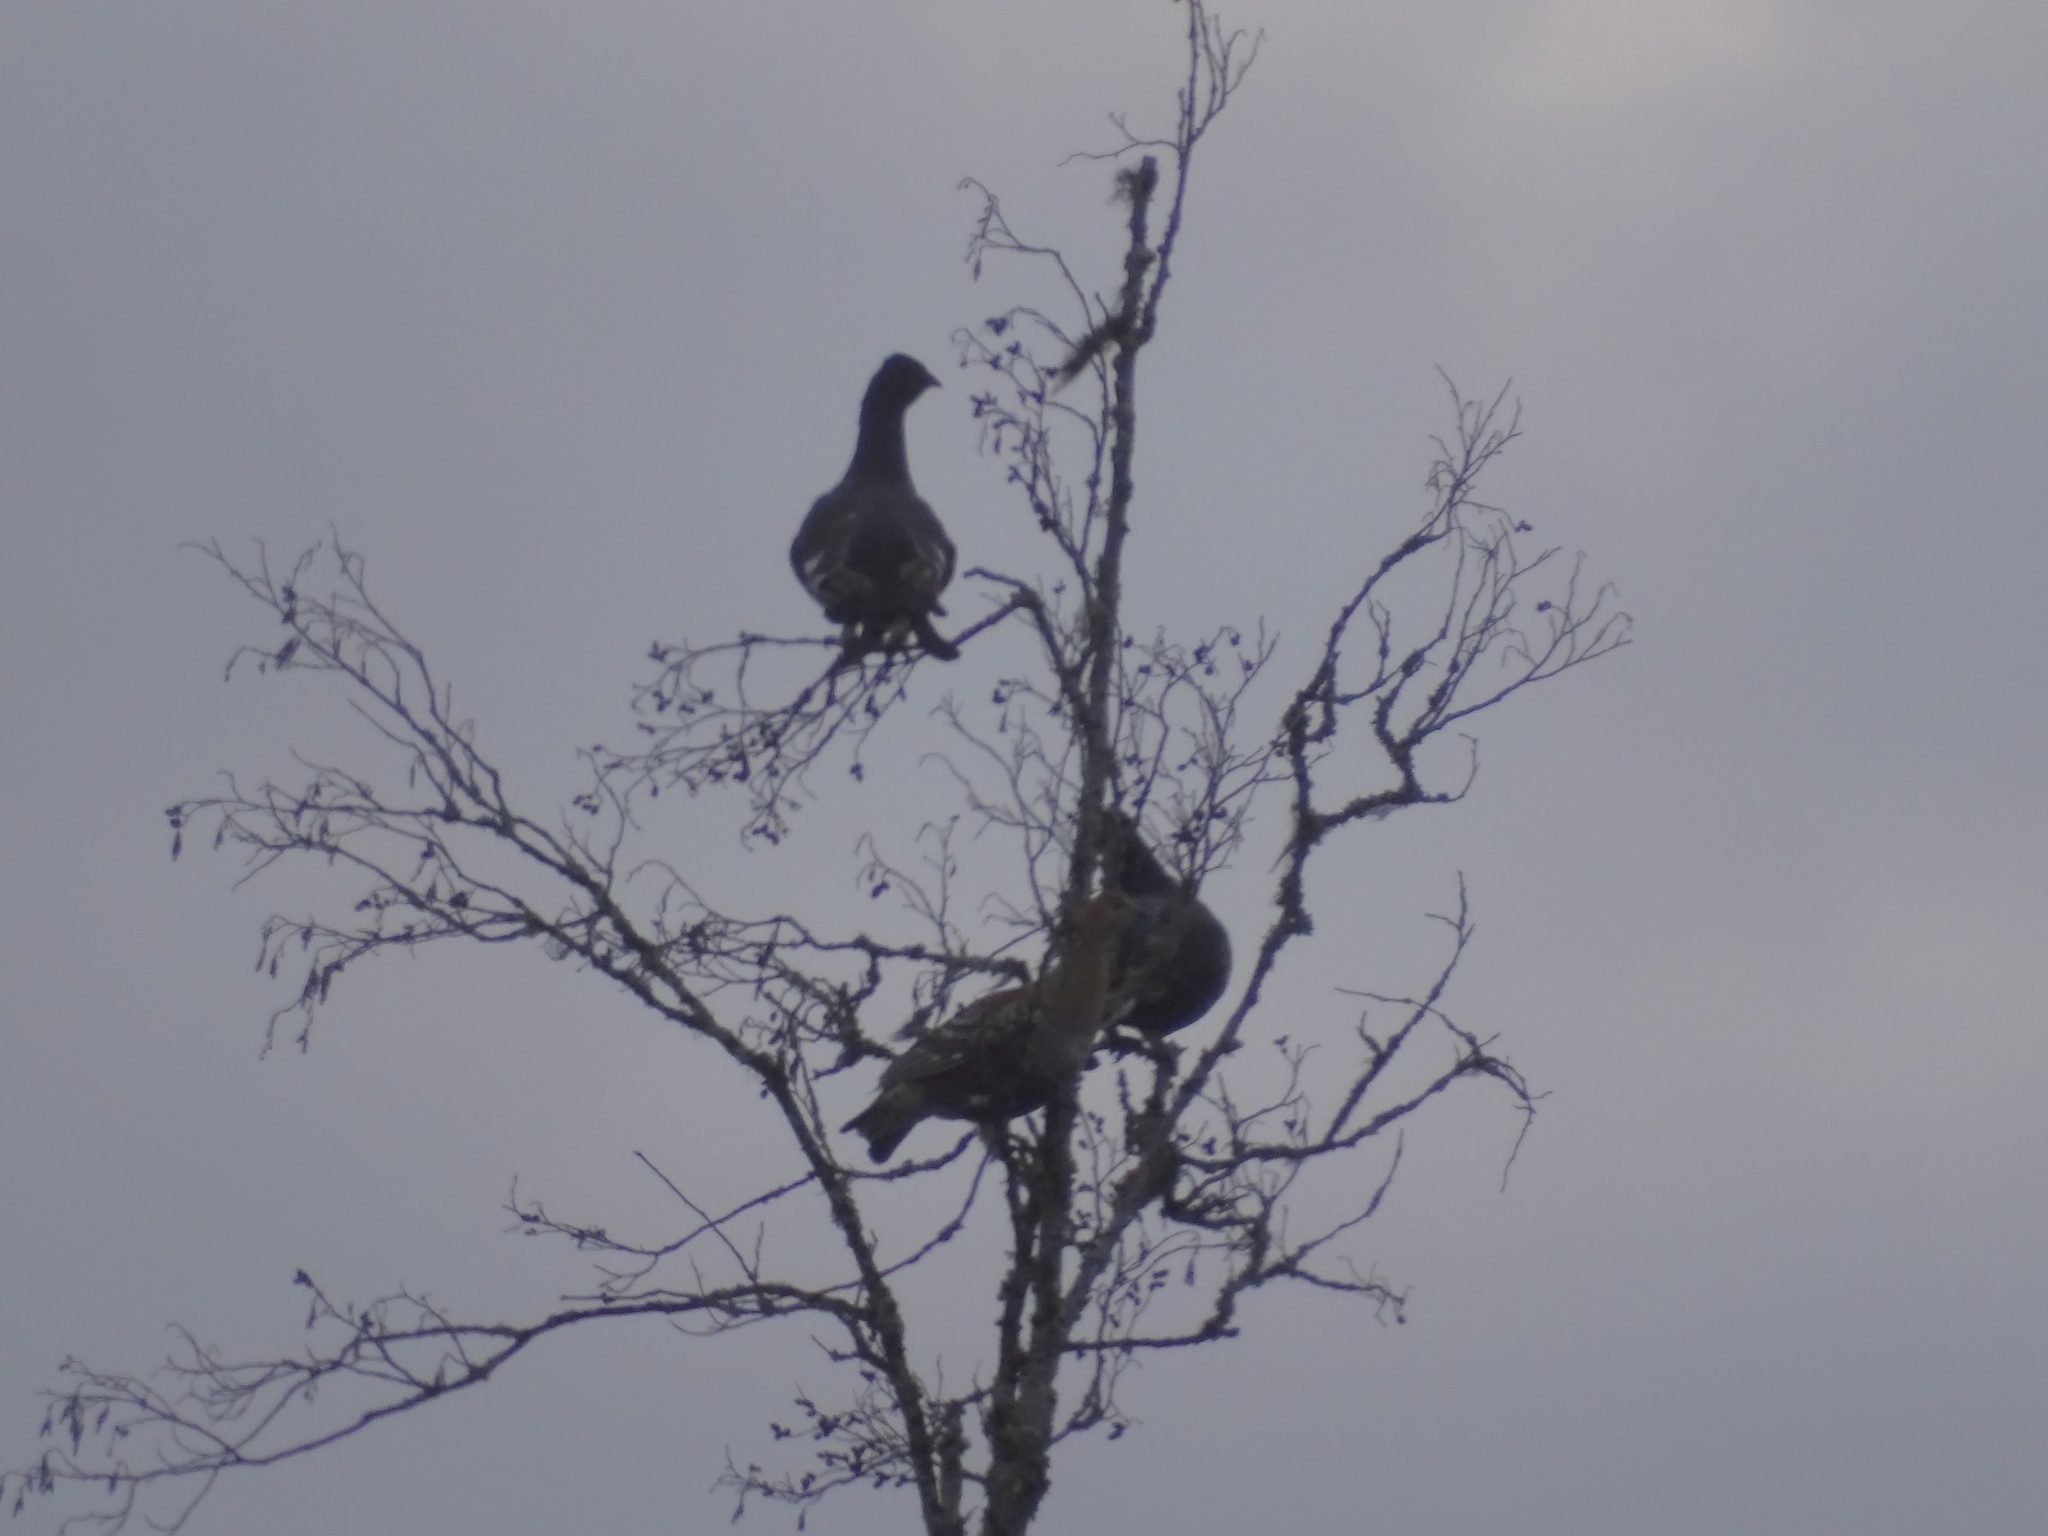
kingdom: Animalia
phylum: Chordata
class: Aves
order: Galliformes
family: Phasianidae
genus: Lyrurus
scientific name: Lyrurus tetrix
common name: Black grouse
